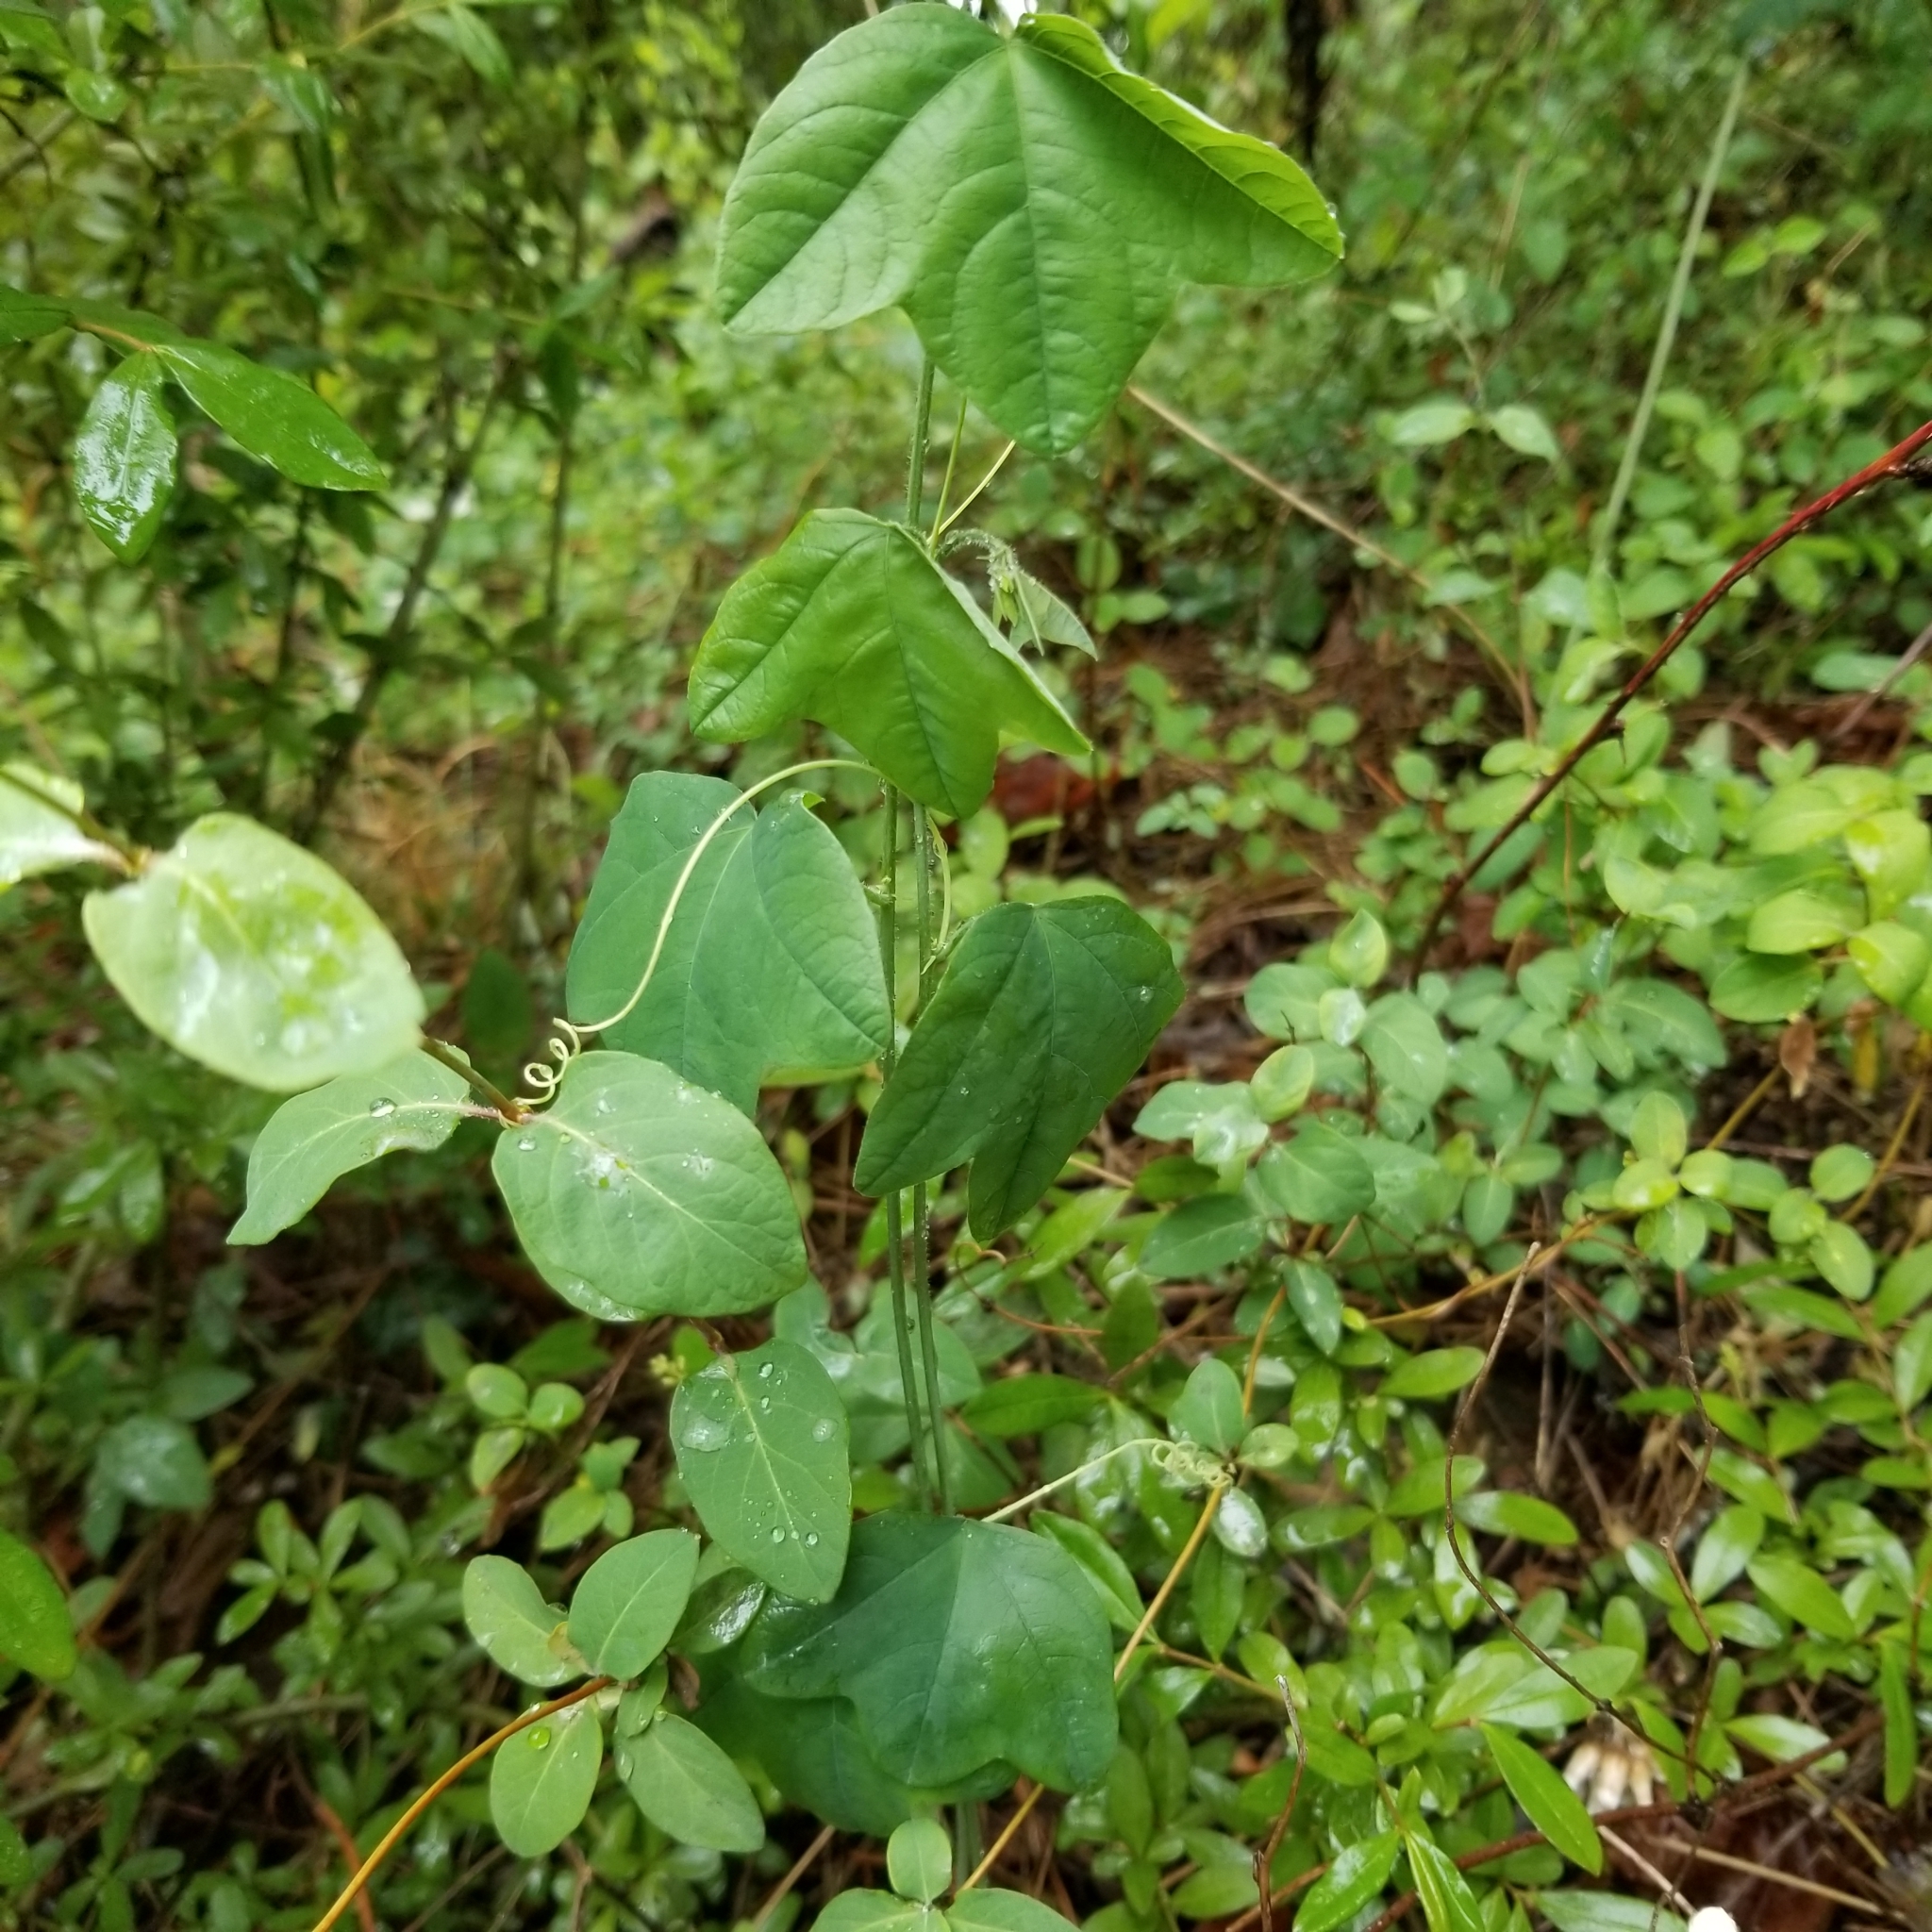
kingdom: Plantae
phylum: Tracheophyta
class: Magnoliopsida
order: Malpighiales
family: Passifloraceae
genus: Passiflora
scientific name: Passiflora lutea
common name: Yellow passionflower
